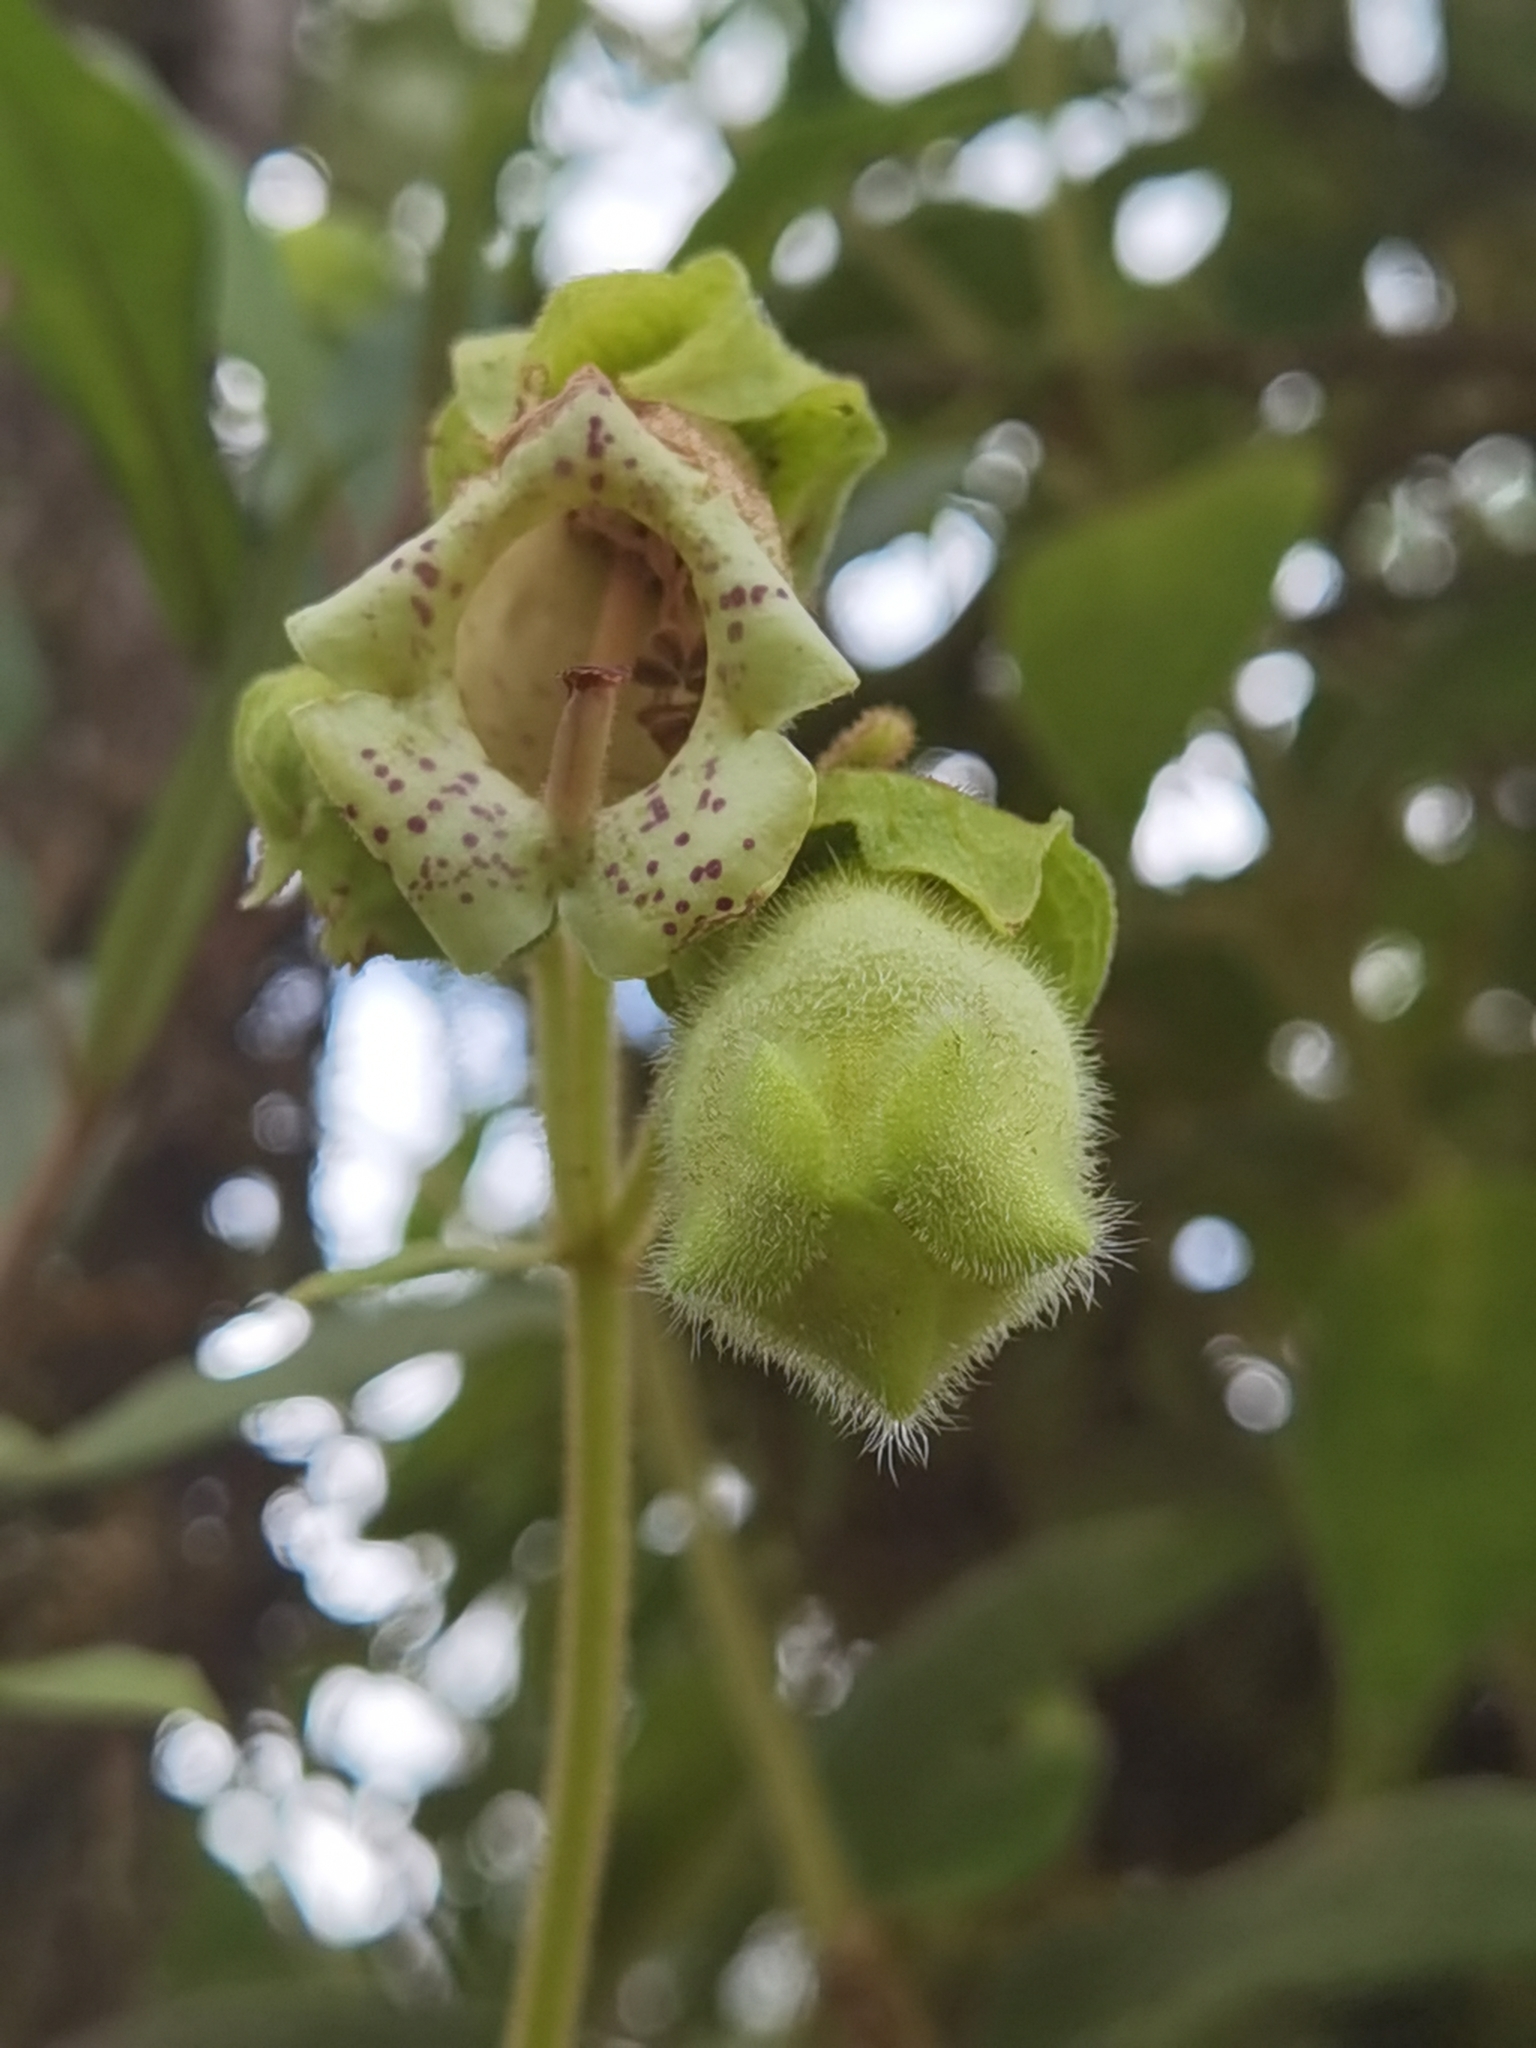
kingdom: Plantae
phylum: Tracheophyta
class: Magnoliopsida
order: Lamiales
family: Gesneriaceae
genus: Kohleria
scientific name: Kohleria tigridia
